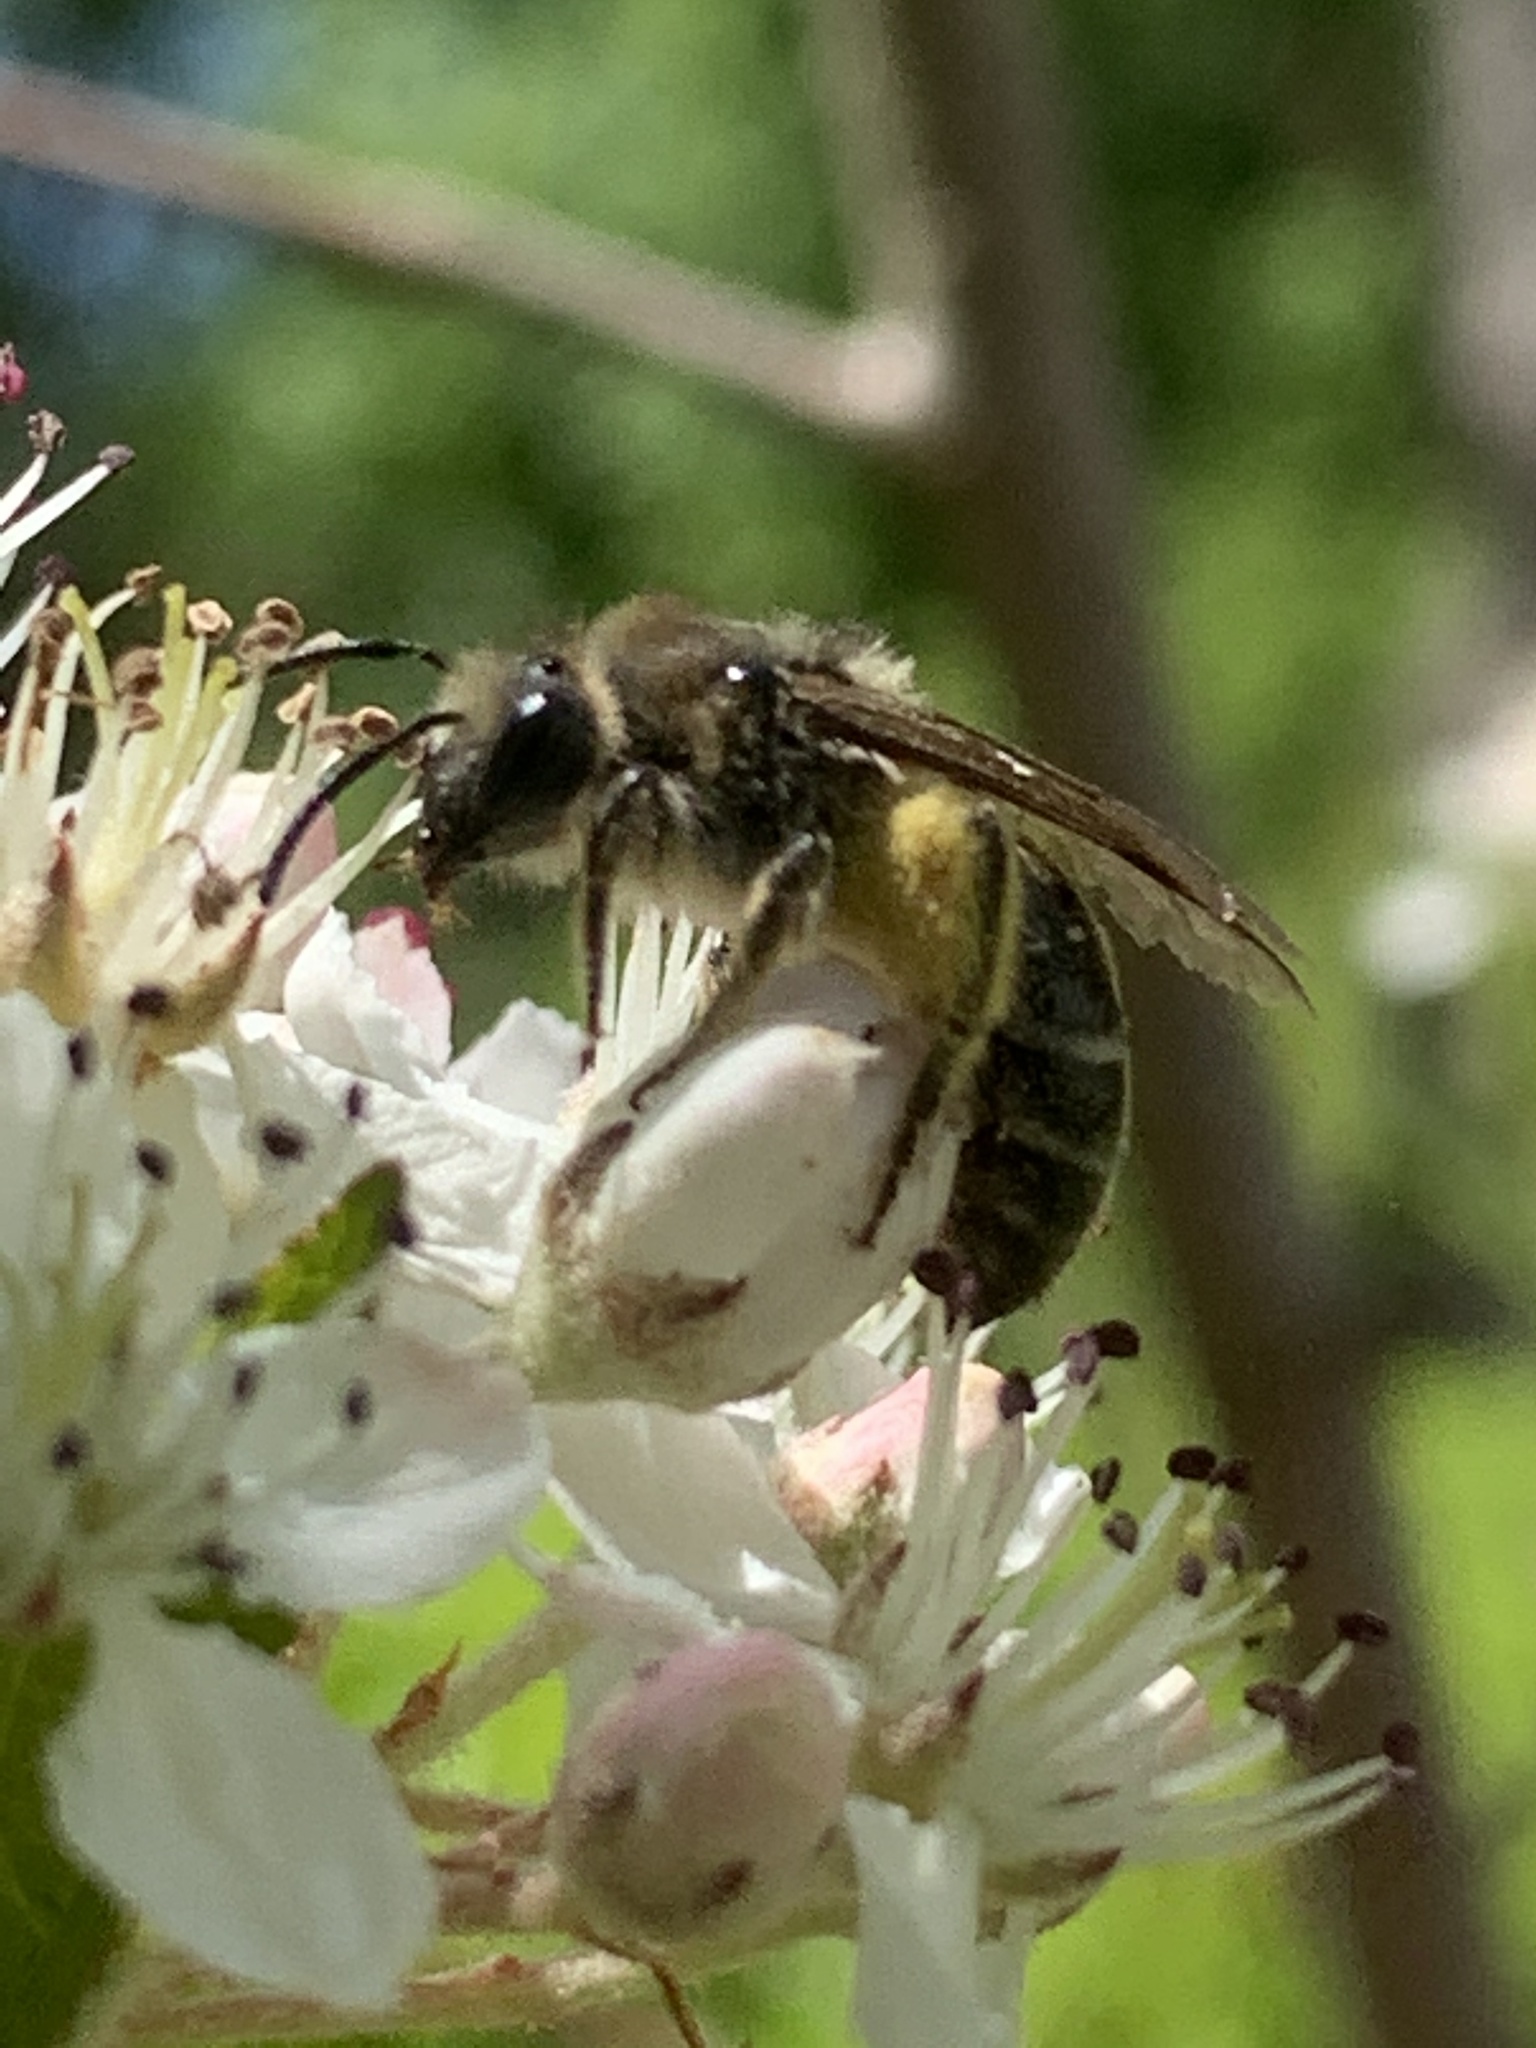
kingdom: Animalia
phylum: Arthropoda
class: Insecta
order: Hymenoptera
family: Andrenidae
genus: Andrena
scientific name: Andrena
